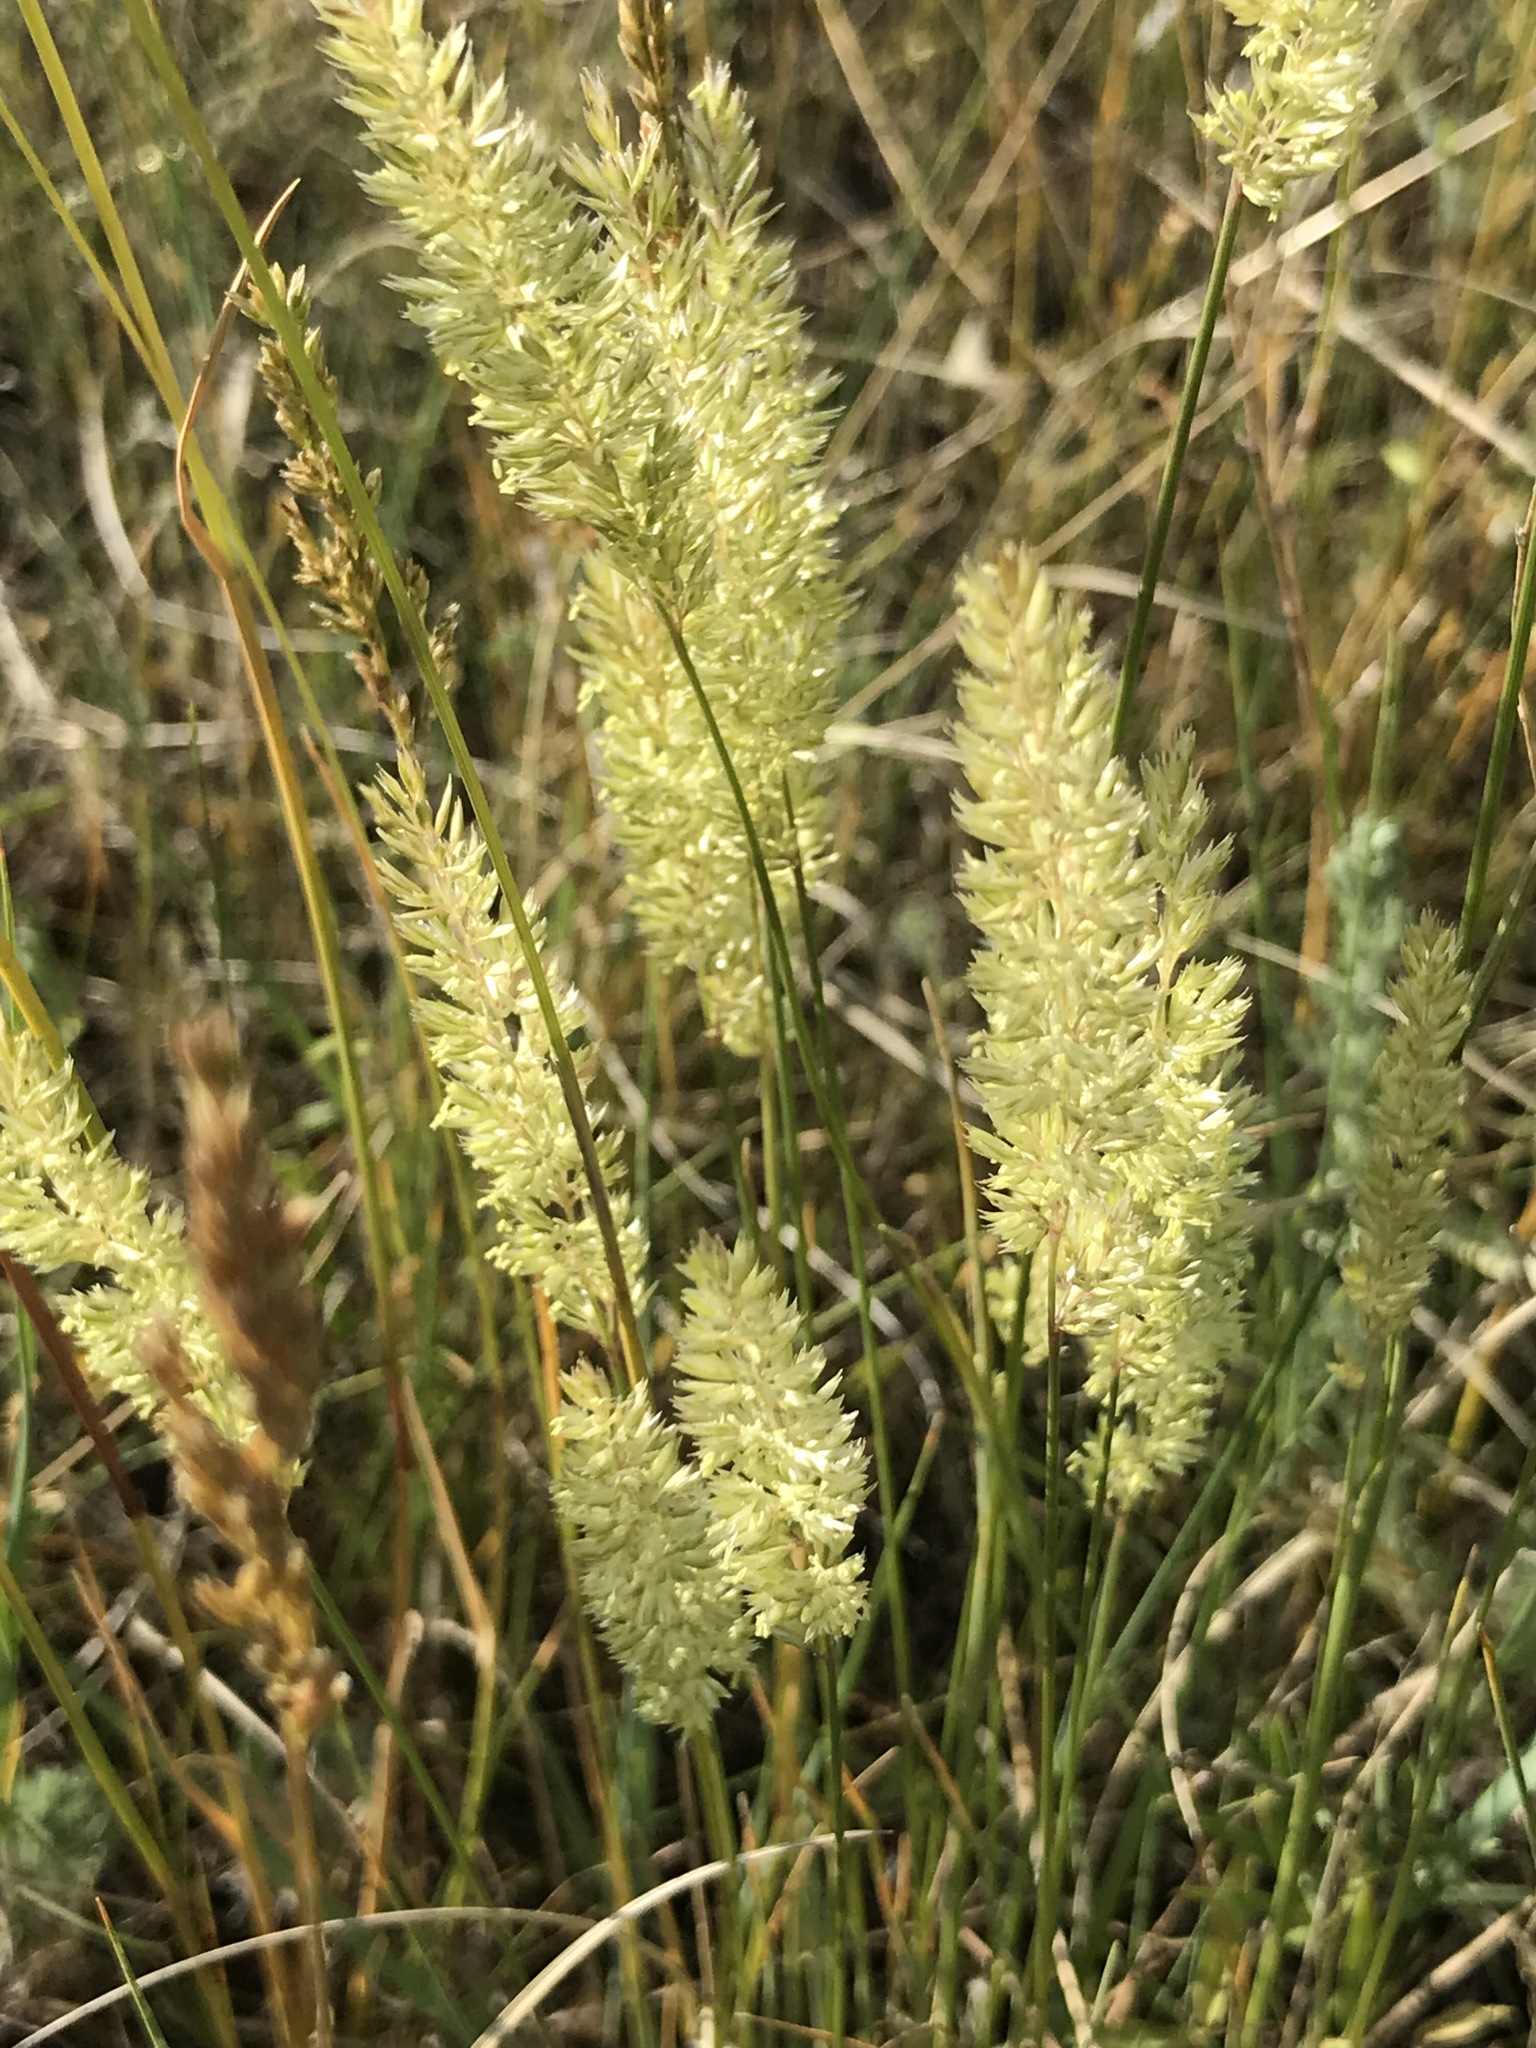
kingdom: Plantae
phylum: Tracheophyta
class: Liliopsida
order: Poales
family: Poaceae
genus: Koeleria
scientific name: Koeleria macrantha
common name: Crested hair-grass
